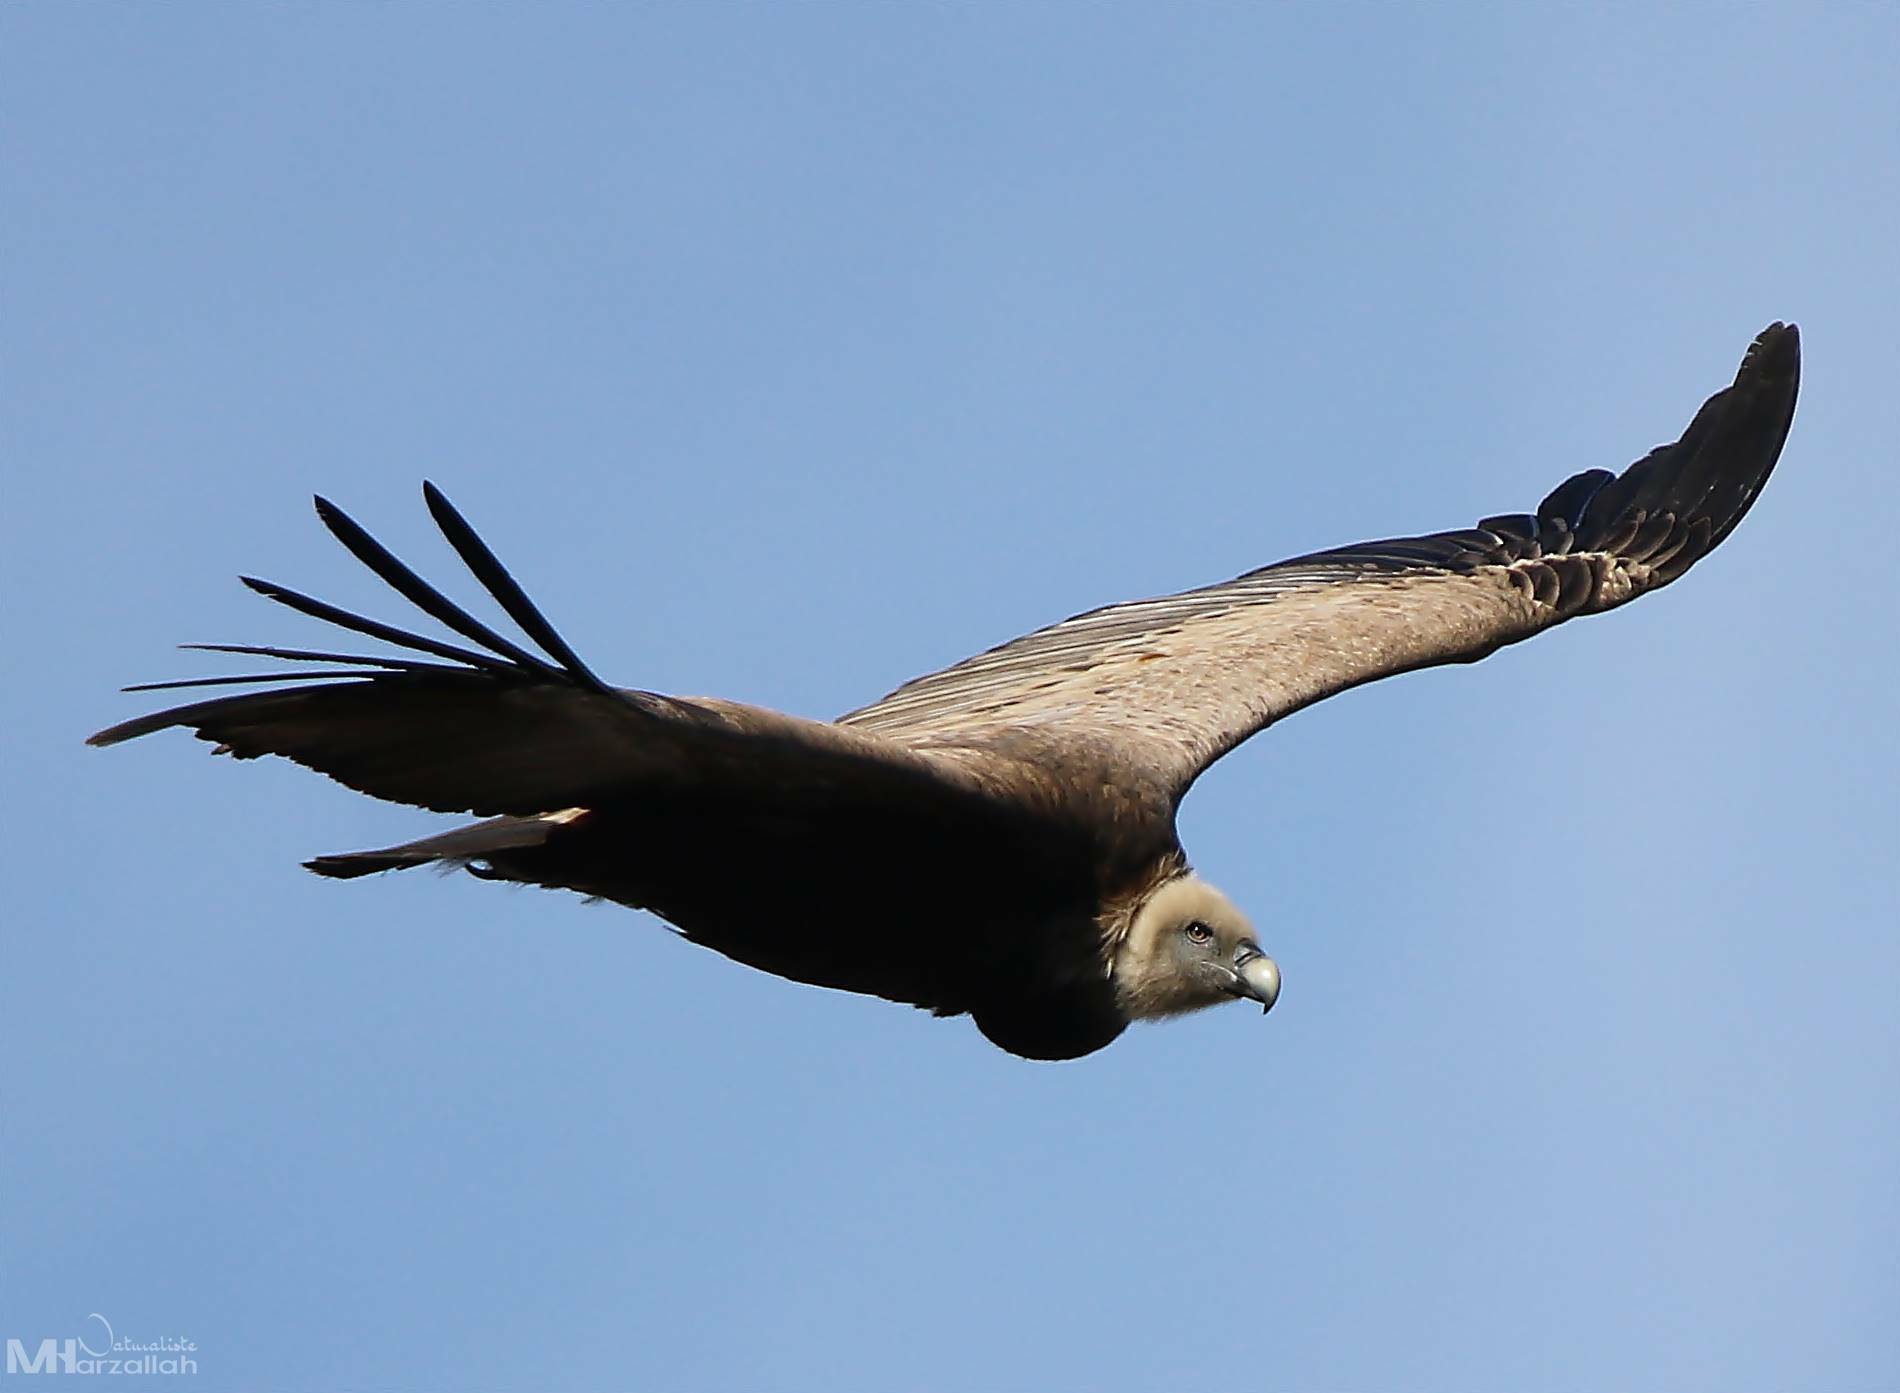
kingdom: Animalia
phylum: Chordata
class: Aves
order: Accipitriformes
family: Accipitridae
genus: Gyps
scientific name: Gyps fulvus
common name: Griffon vulture
